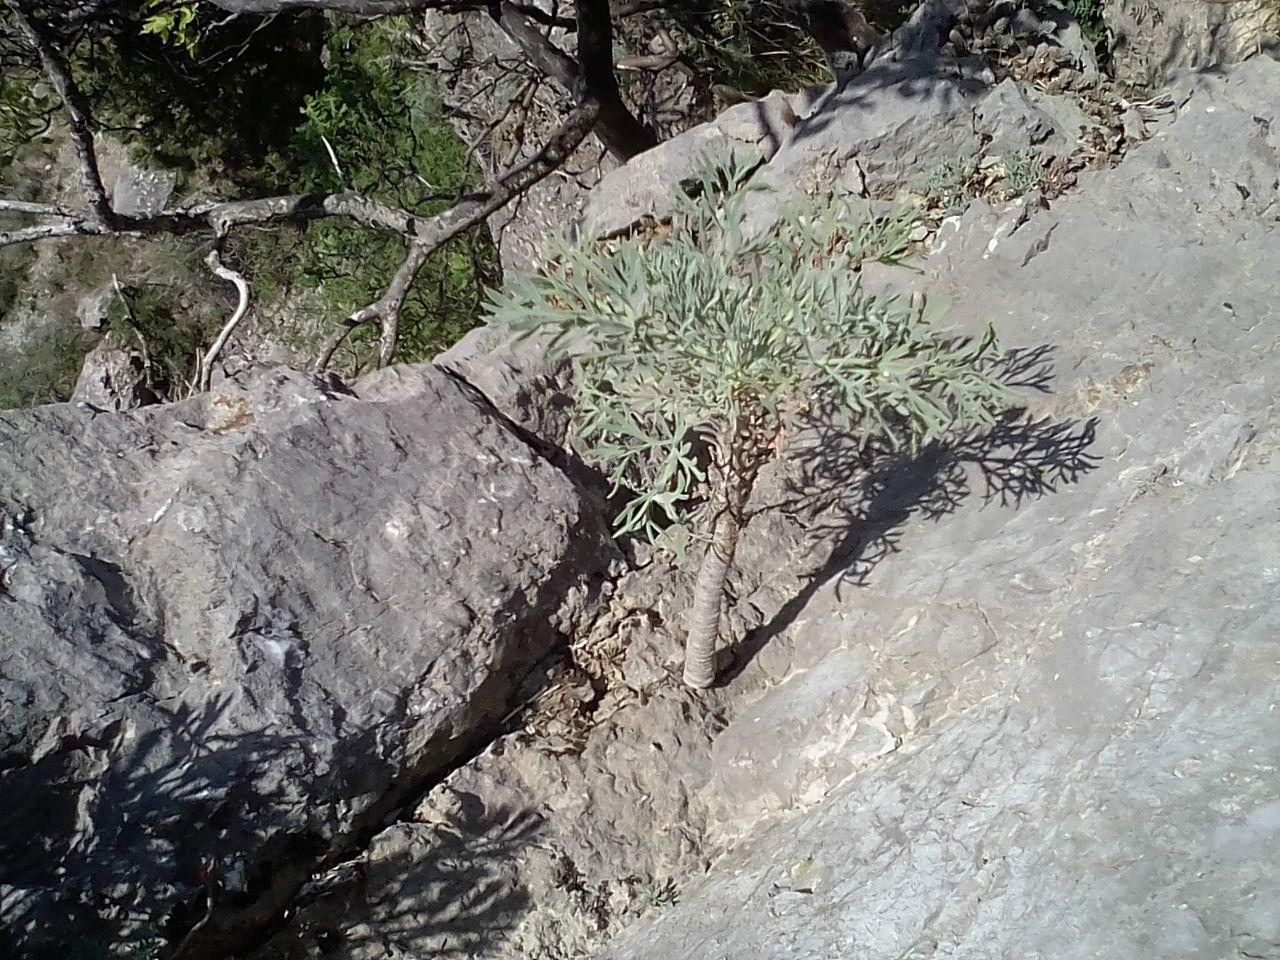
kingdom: Plantae
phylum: Tracheophyta
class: Magnoliopsida
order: Apiales
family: Apiaceae
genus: Seseli
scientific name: Seseli gummiferum
